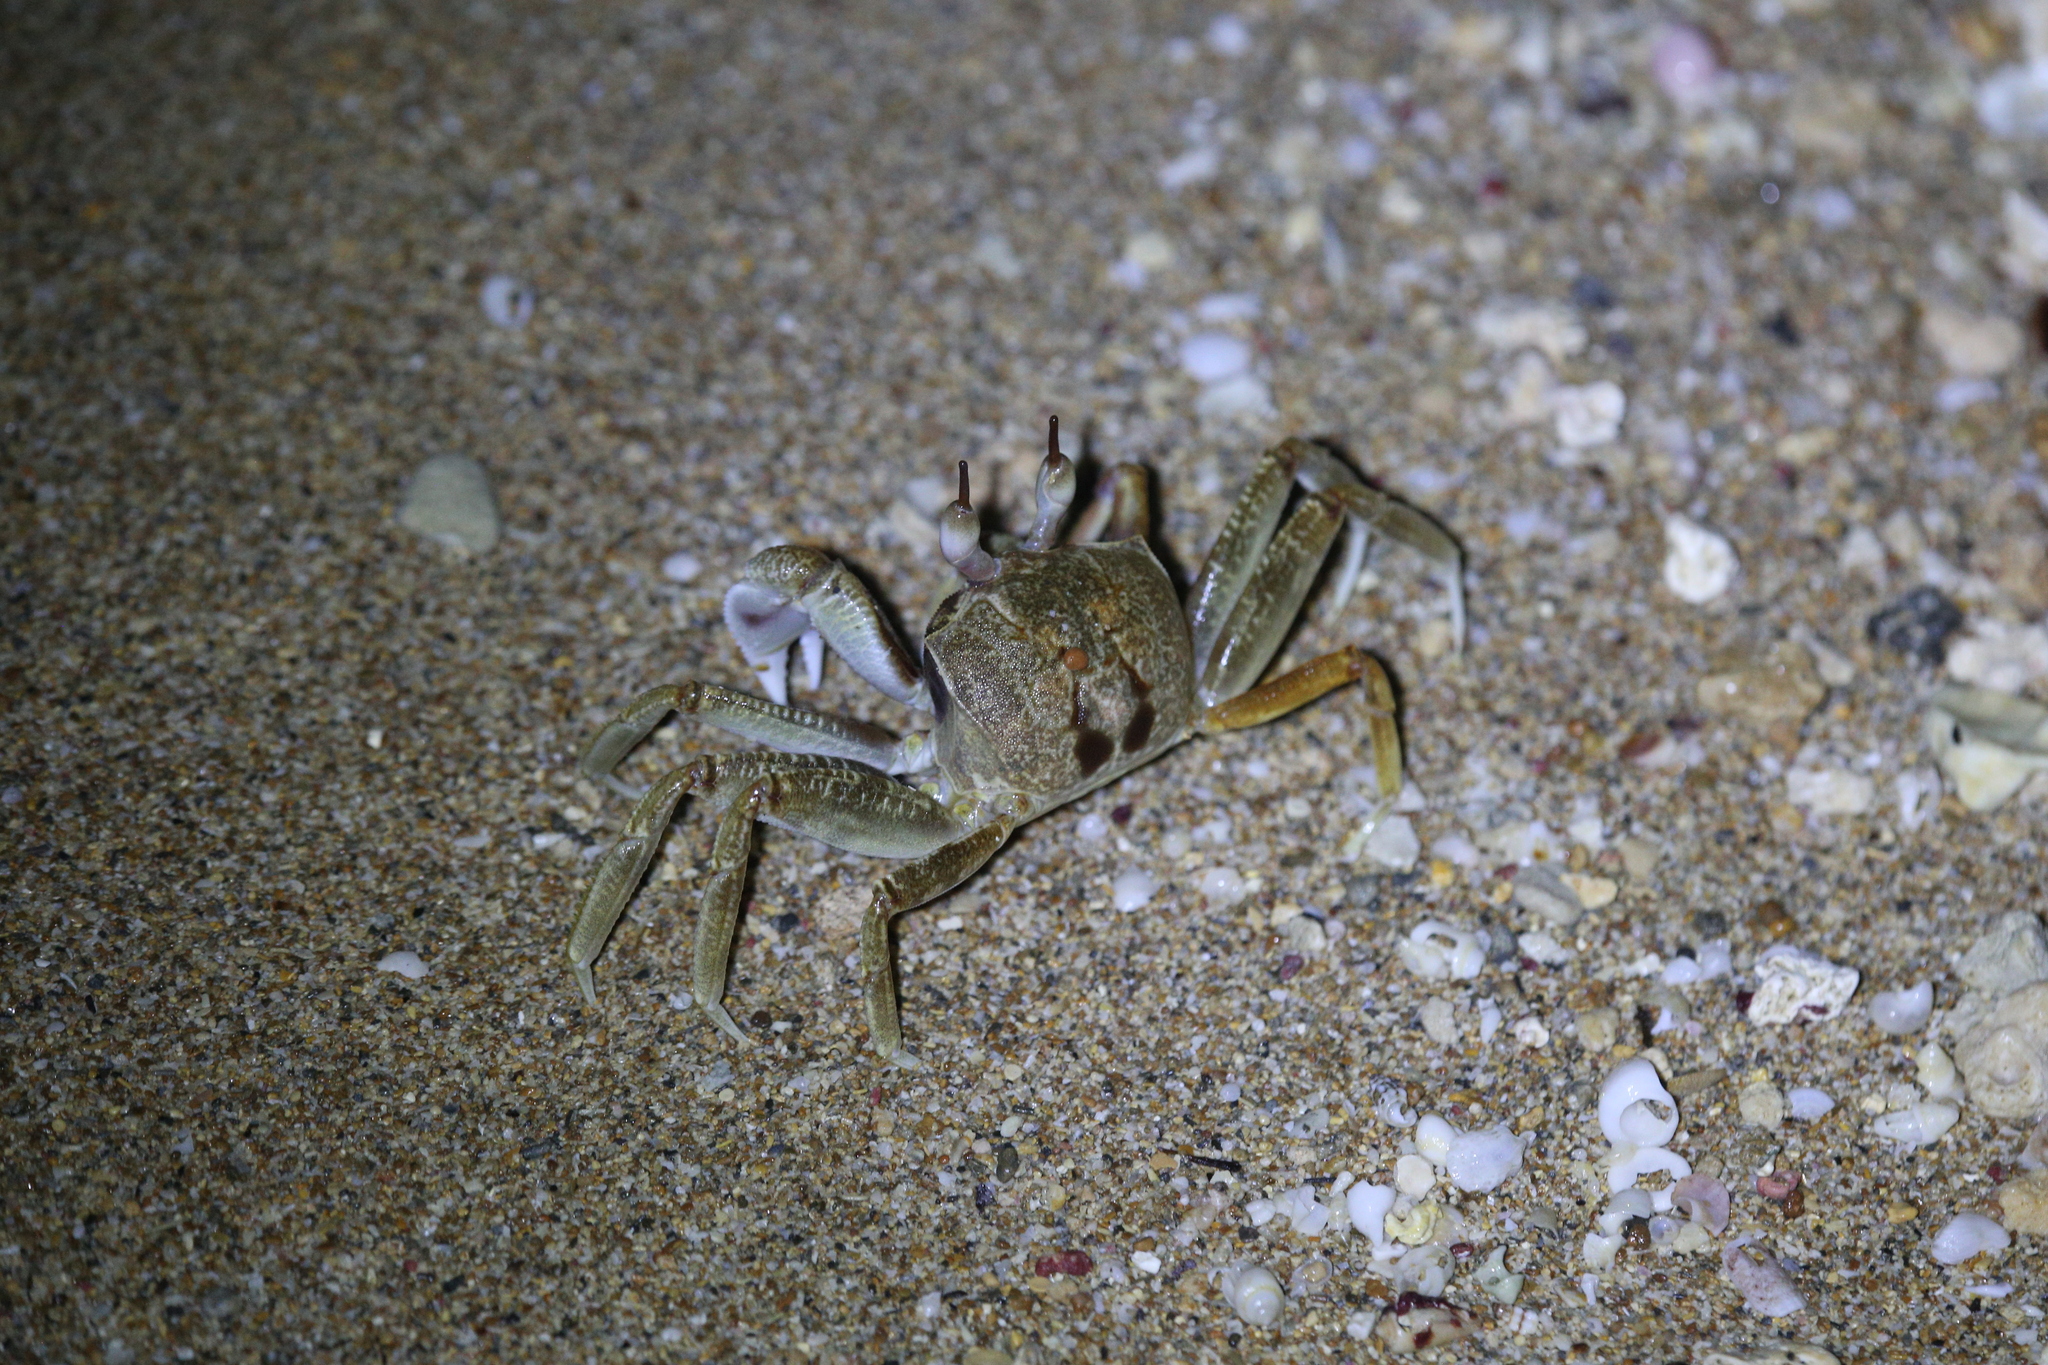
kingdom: Animalia
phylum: Arthropoda
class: Malacostraca
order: Decapoda
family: Ocypodidae
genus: Ocypode
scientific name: Ocypode ceratophthalmus
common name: Indo-pacific ghost crab
